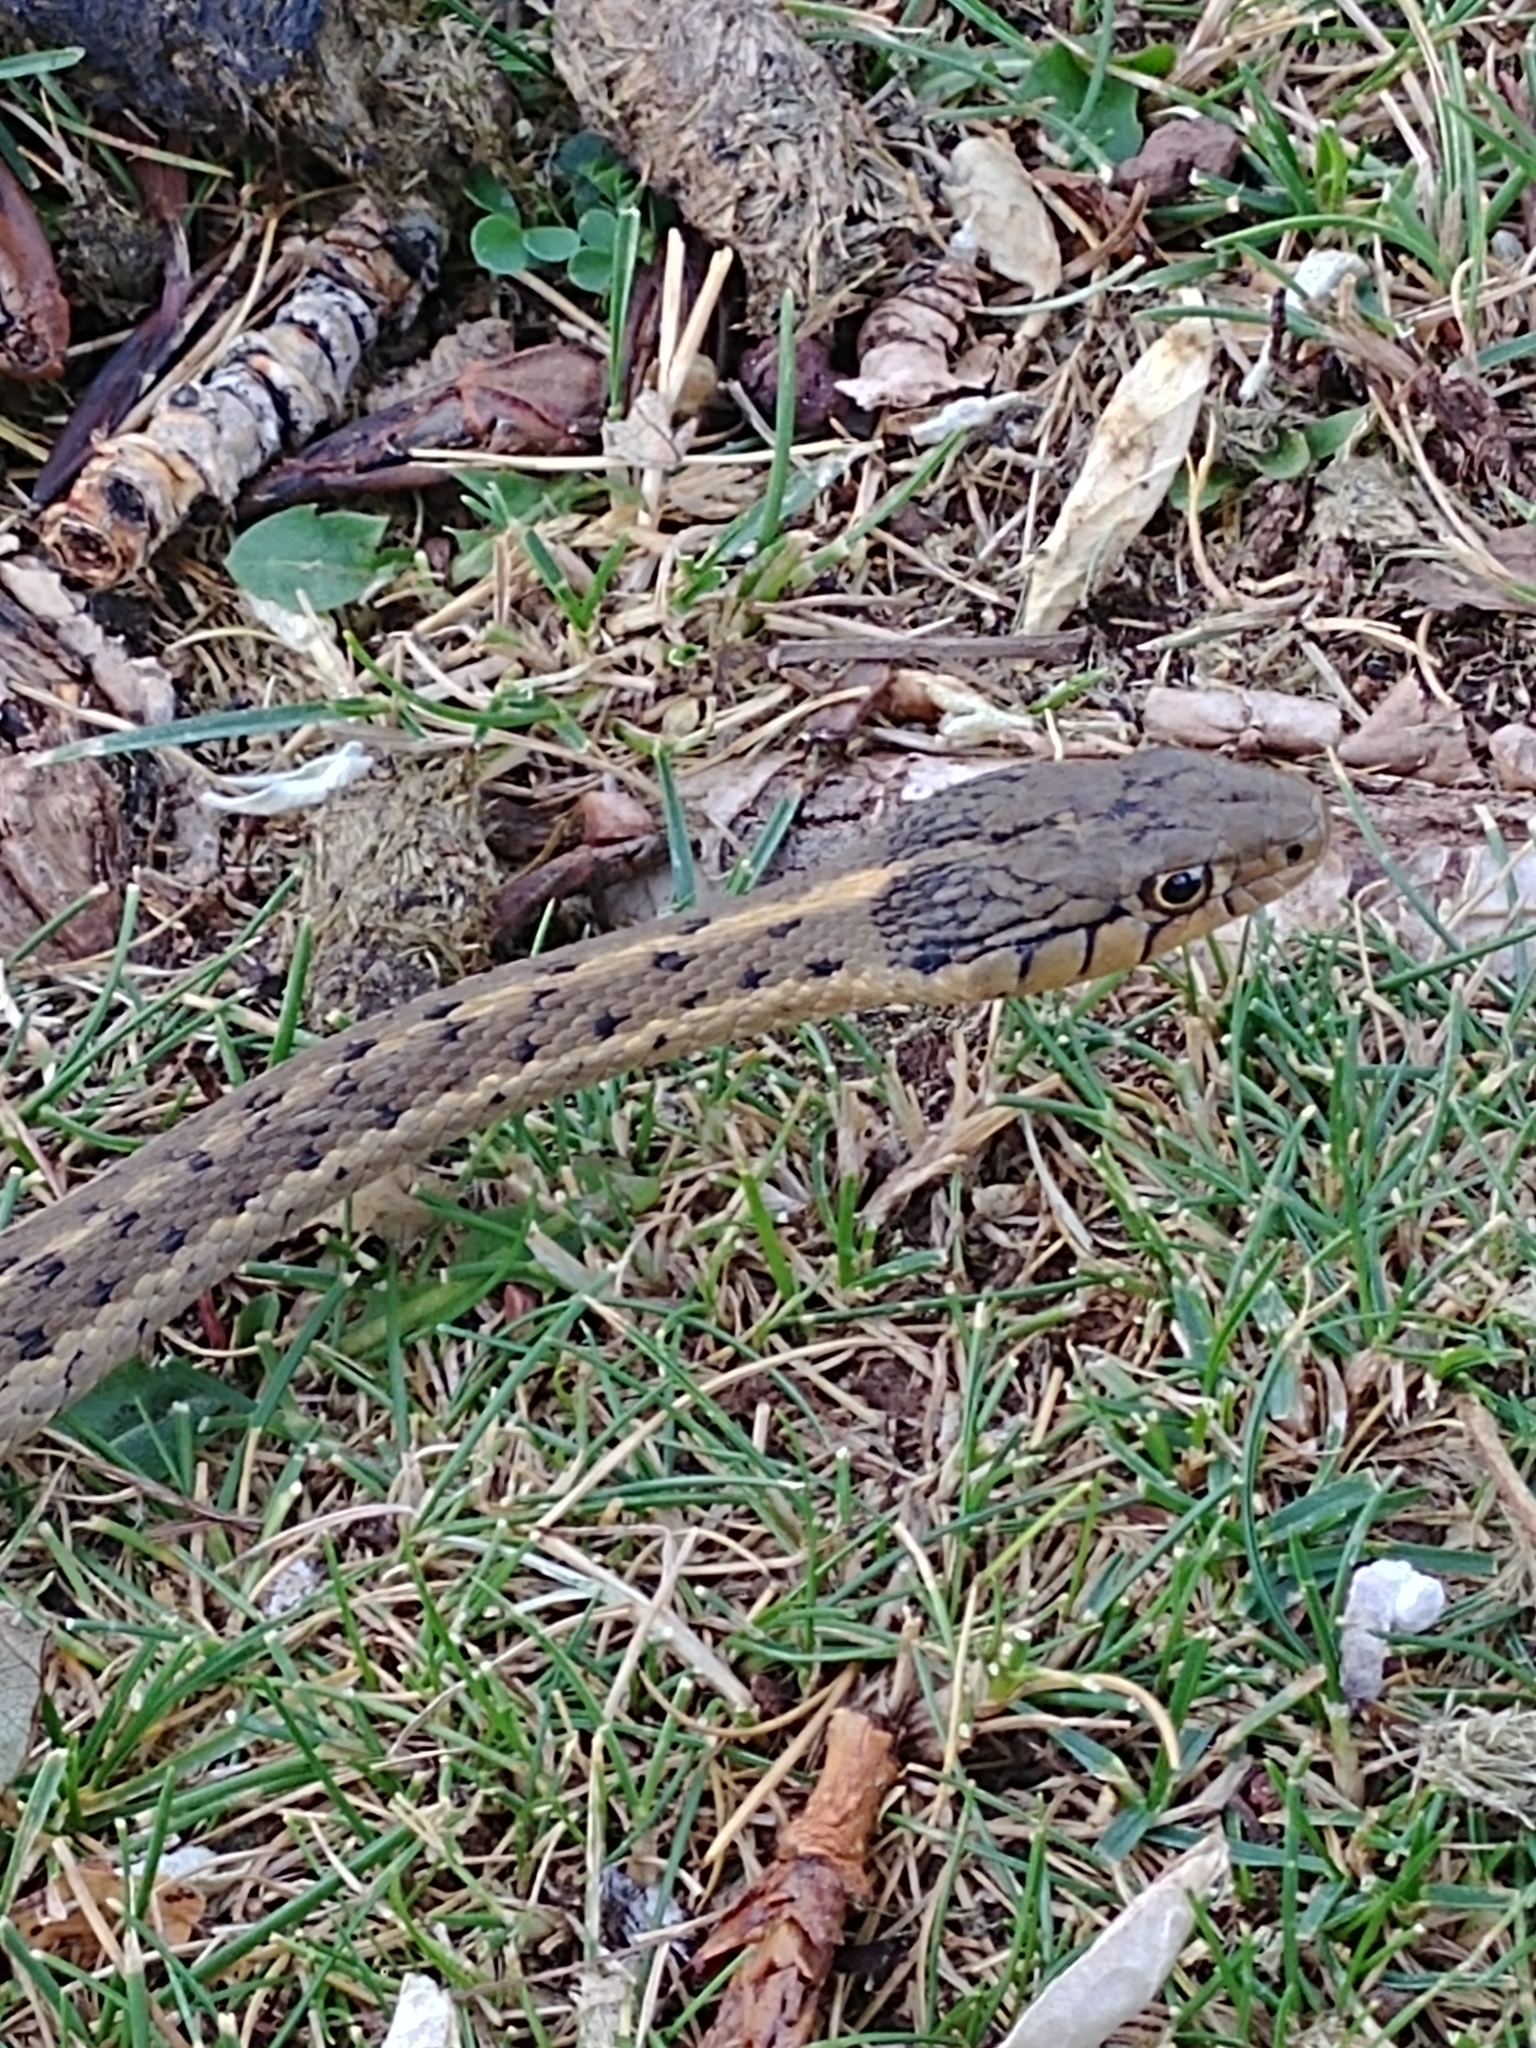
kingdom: Animalia
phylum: Chordata
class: Squamata
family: Colubridae
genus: Thamnophis
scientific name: Thamnophis elegans
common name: Western terrestrial garter snake
